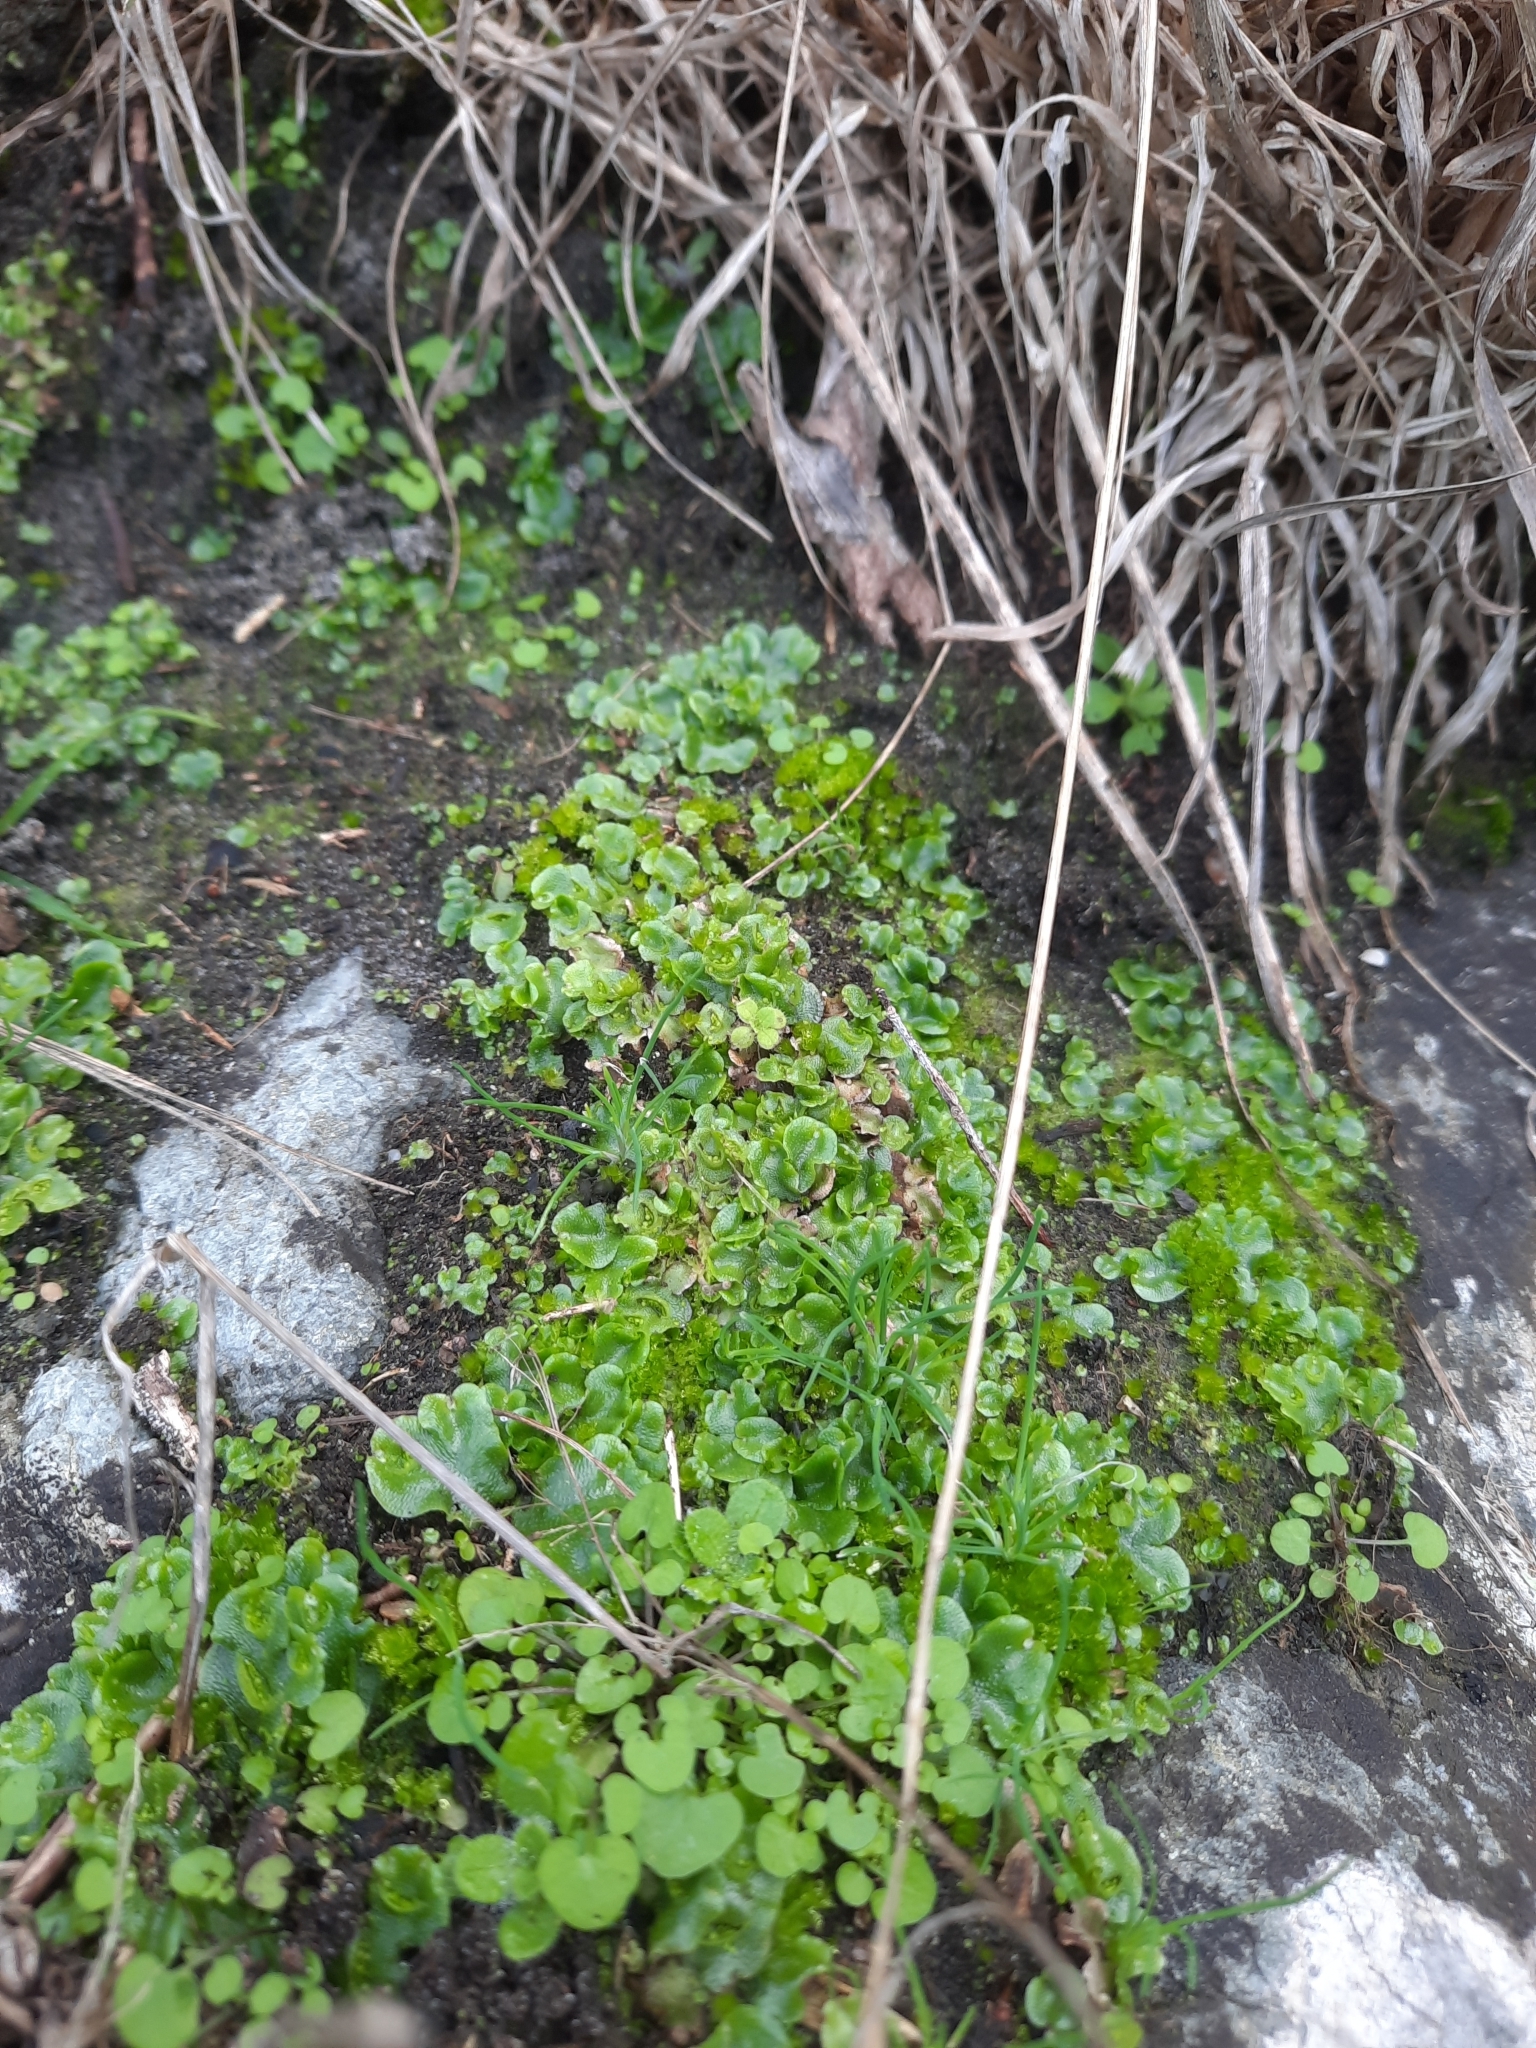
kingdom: Plantae
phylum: Marchantiophyta
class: Marchantiopsida
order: Lunulariales
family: Lunulariaceae
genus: Lunularia
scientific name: Lunularia cruciata
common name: Crescent-cup liverwort
